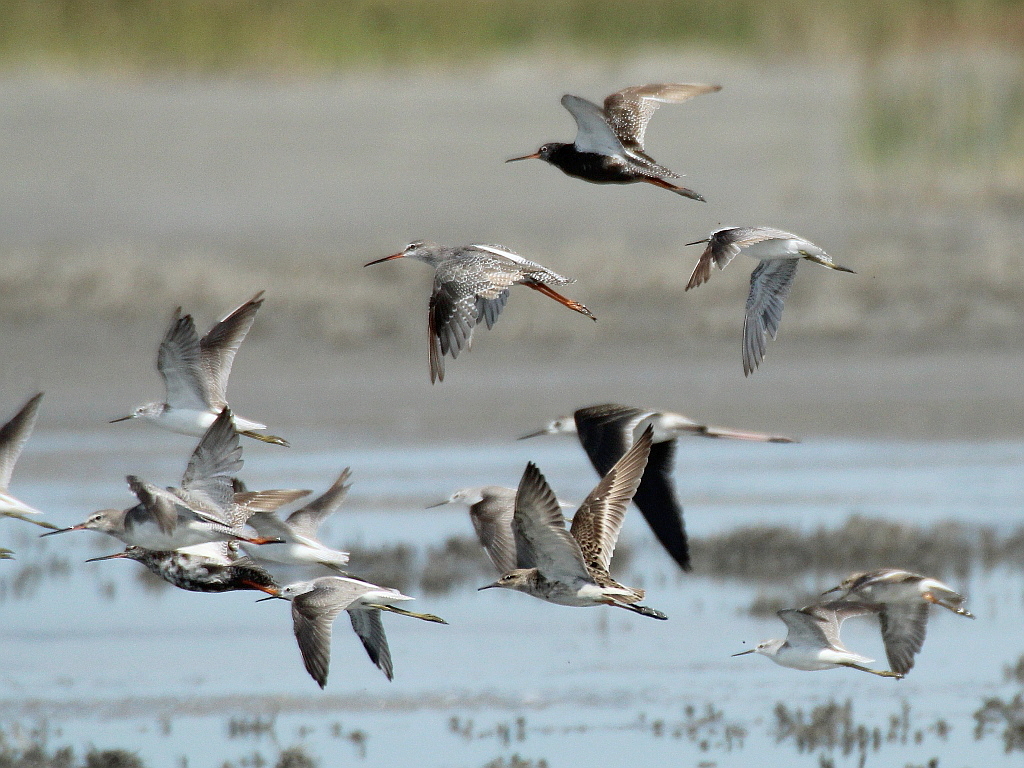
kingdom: Animalia
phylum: Chordata
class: Aves
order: Charadriiformes
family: Scolopacidae
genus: Tringa
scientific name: Tringa erythropus
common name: Spotted redshank
